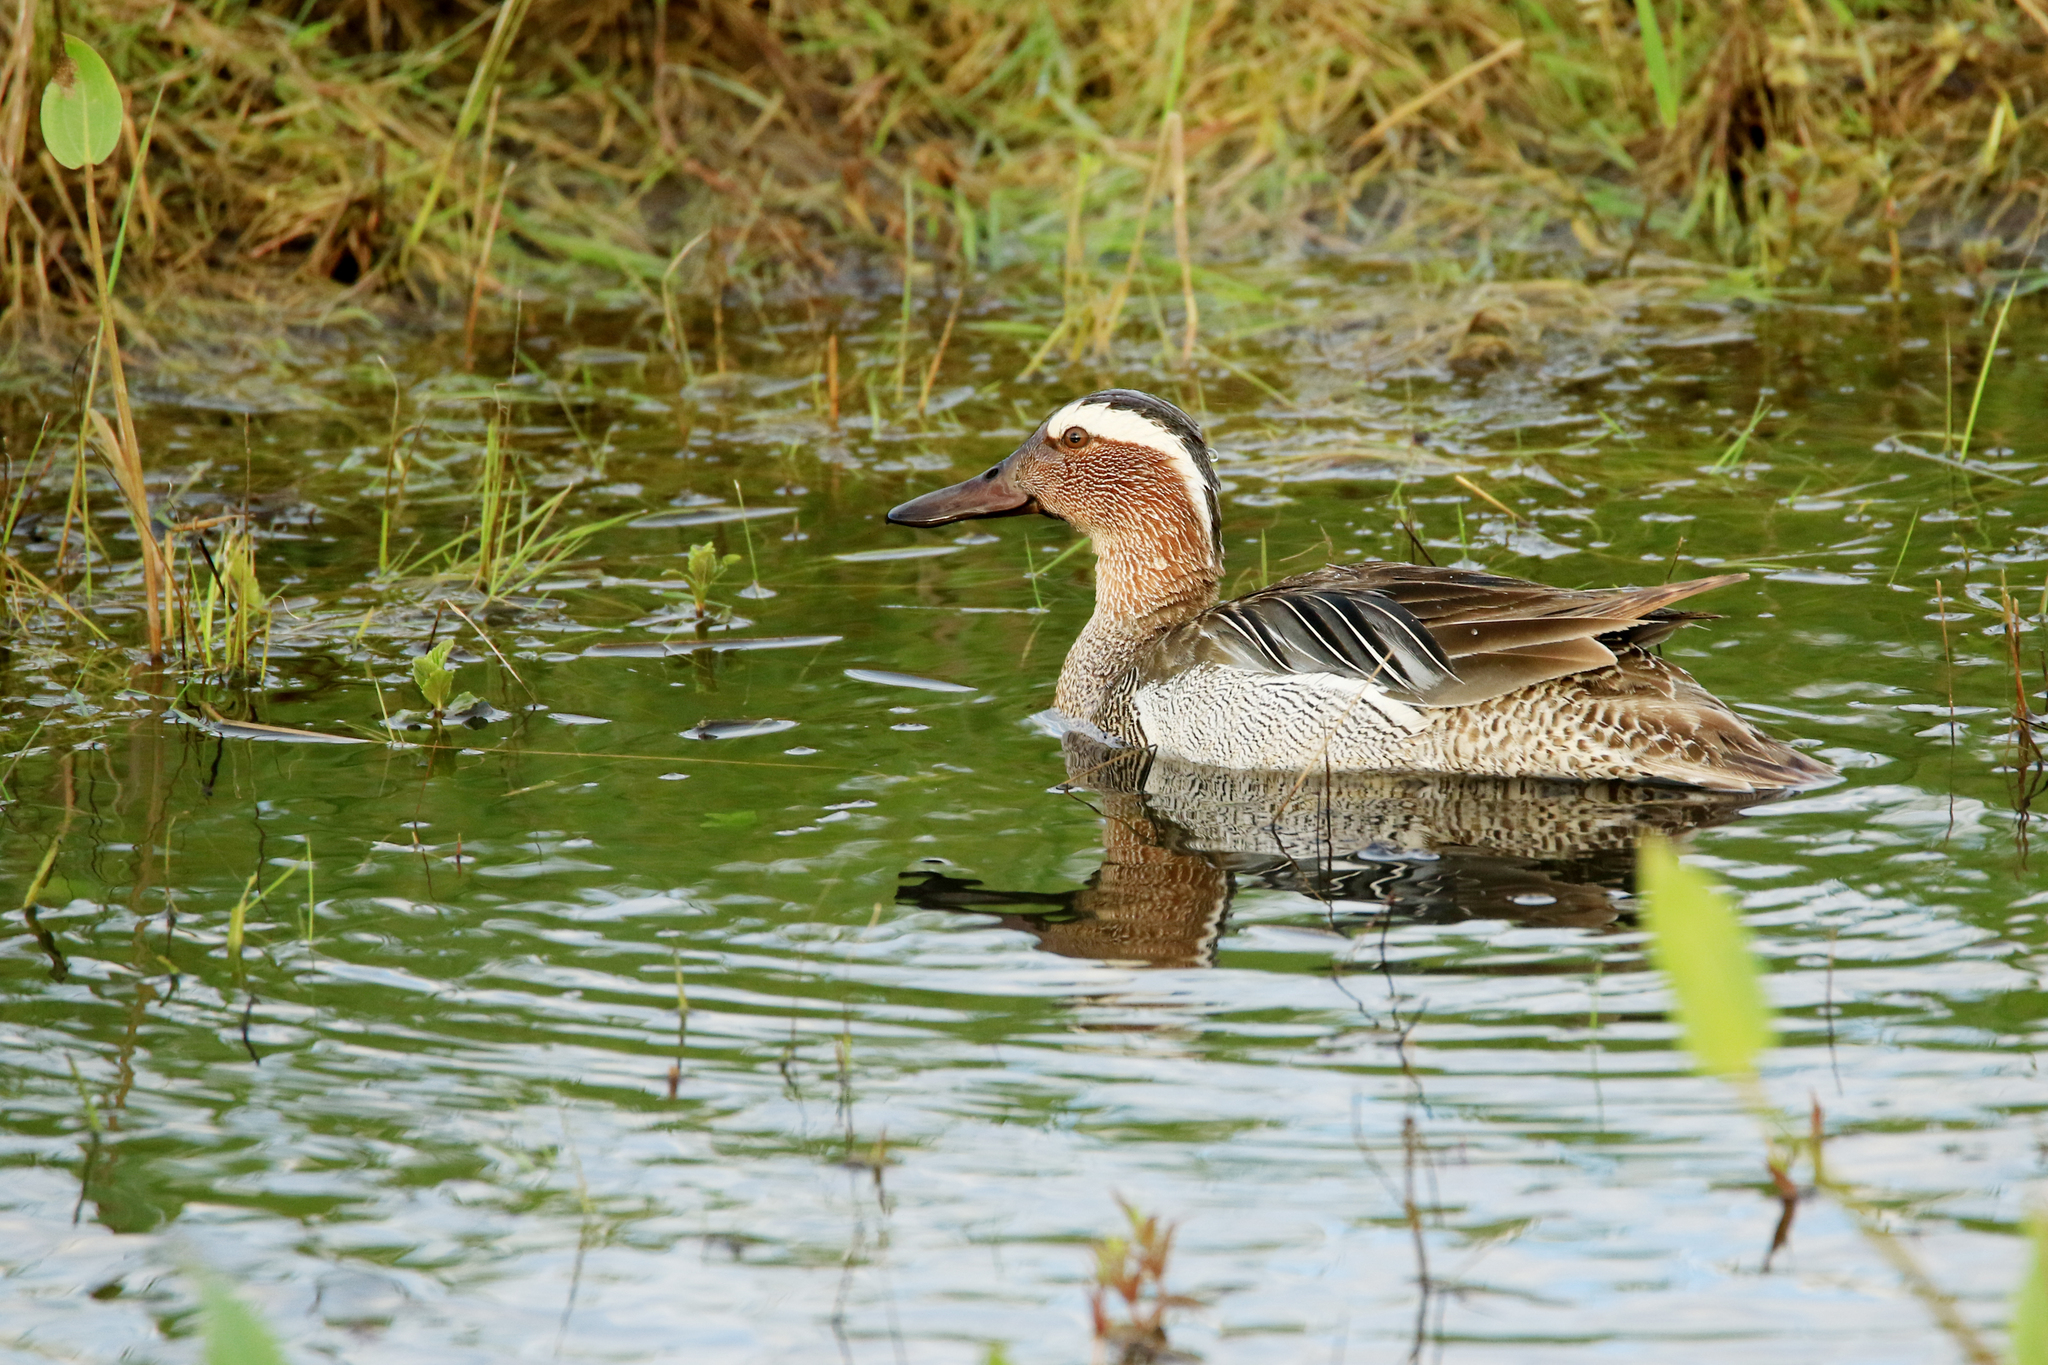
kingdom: Animalia
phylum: Chordata
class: Aves
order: Anseriformes
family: Anatidae
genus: Spatula
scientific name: Spatula querquedula
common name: Garganey
